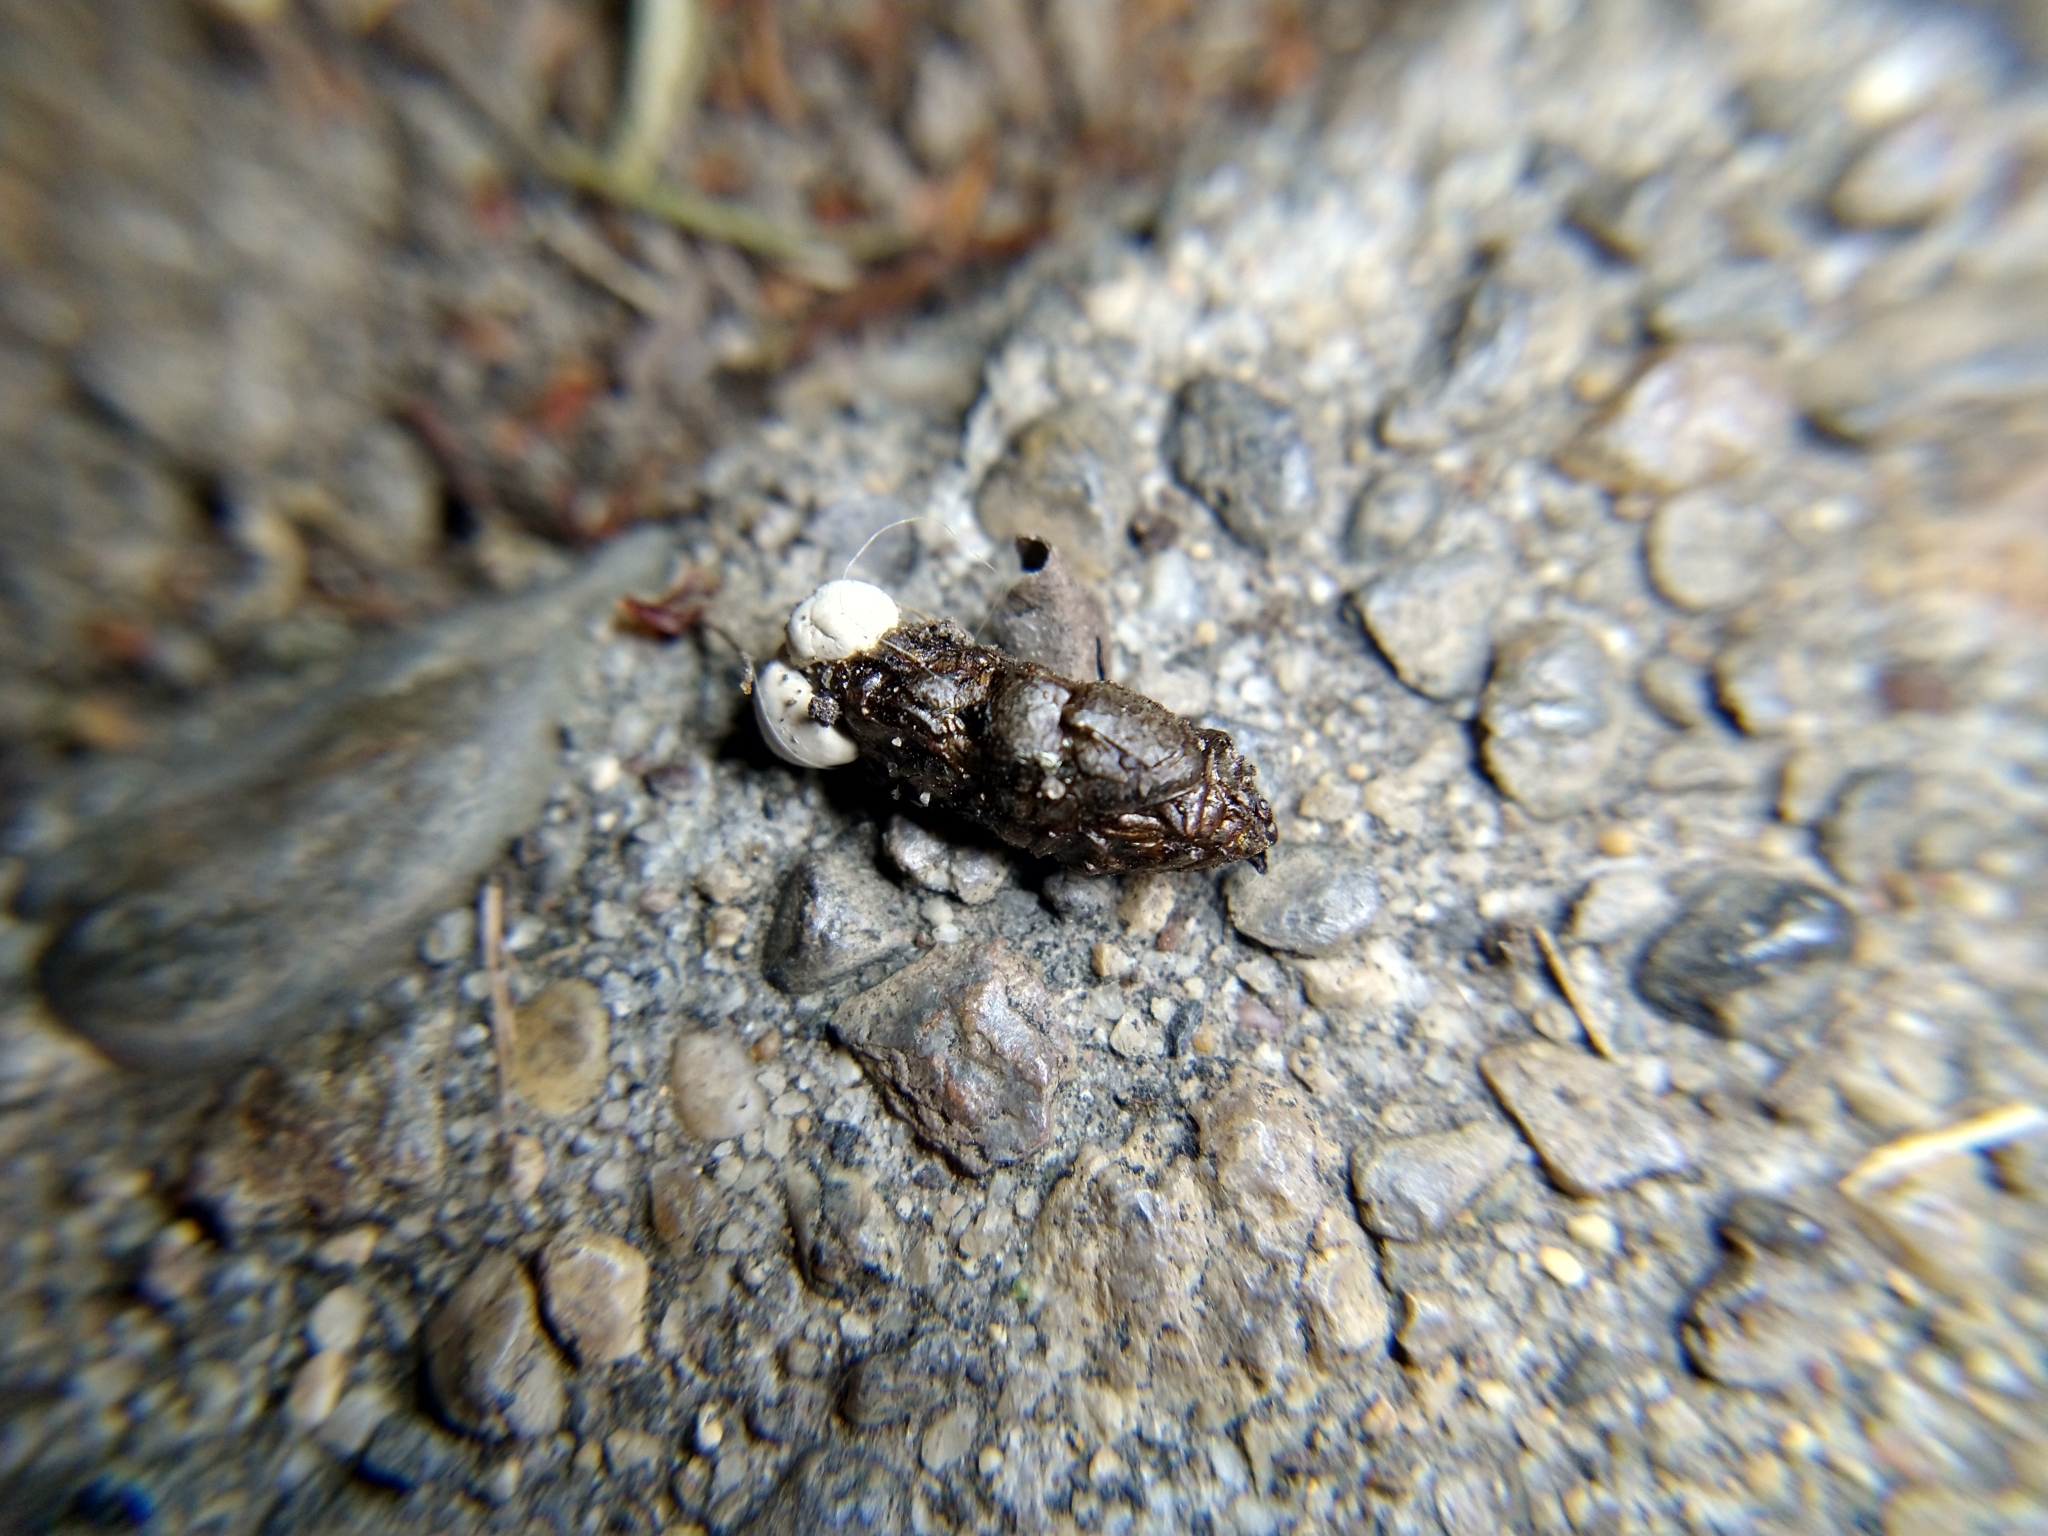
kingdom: Animalia
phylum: Chordata
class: Squamata
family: Phrynosomatidae
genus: Sceloporus
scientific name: Sceloporus occidentalis
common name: Western fence lizard
